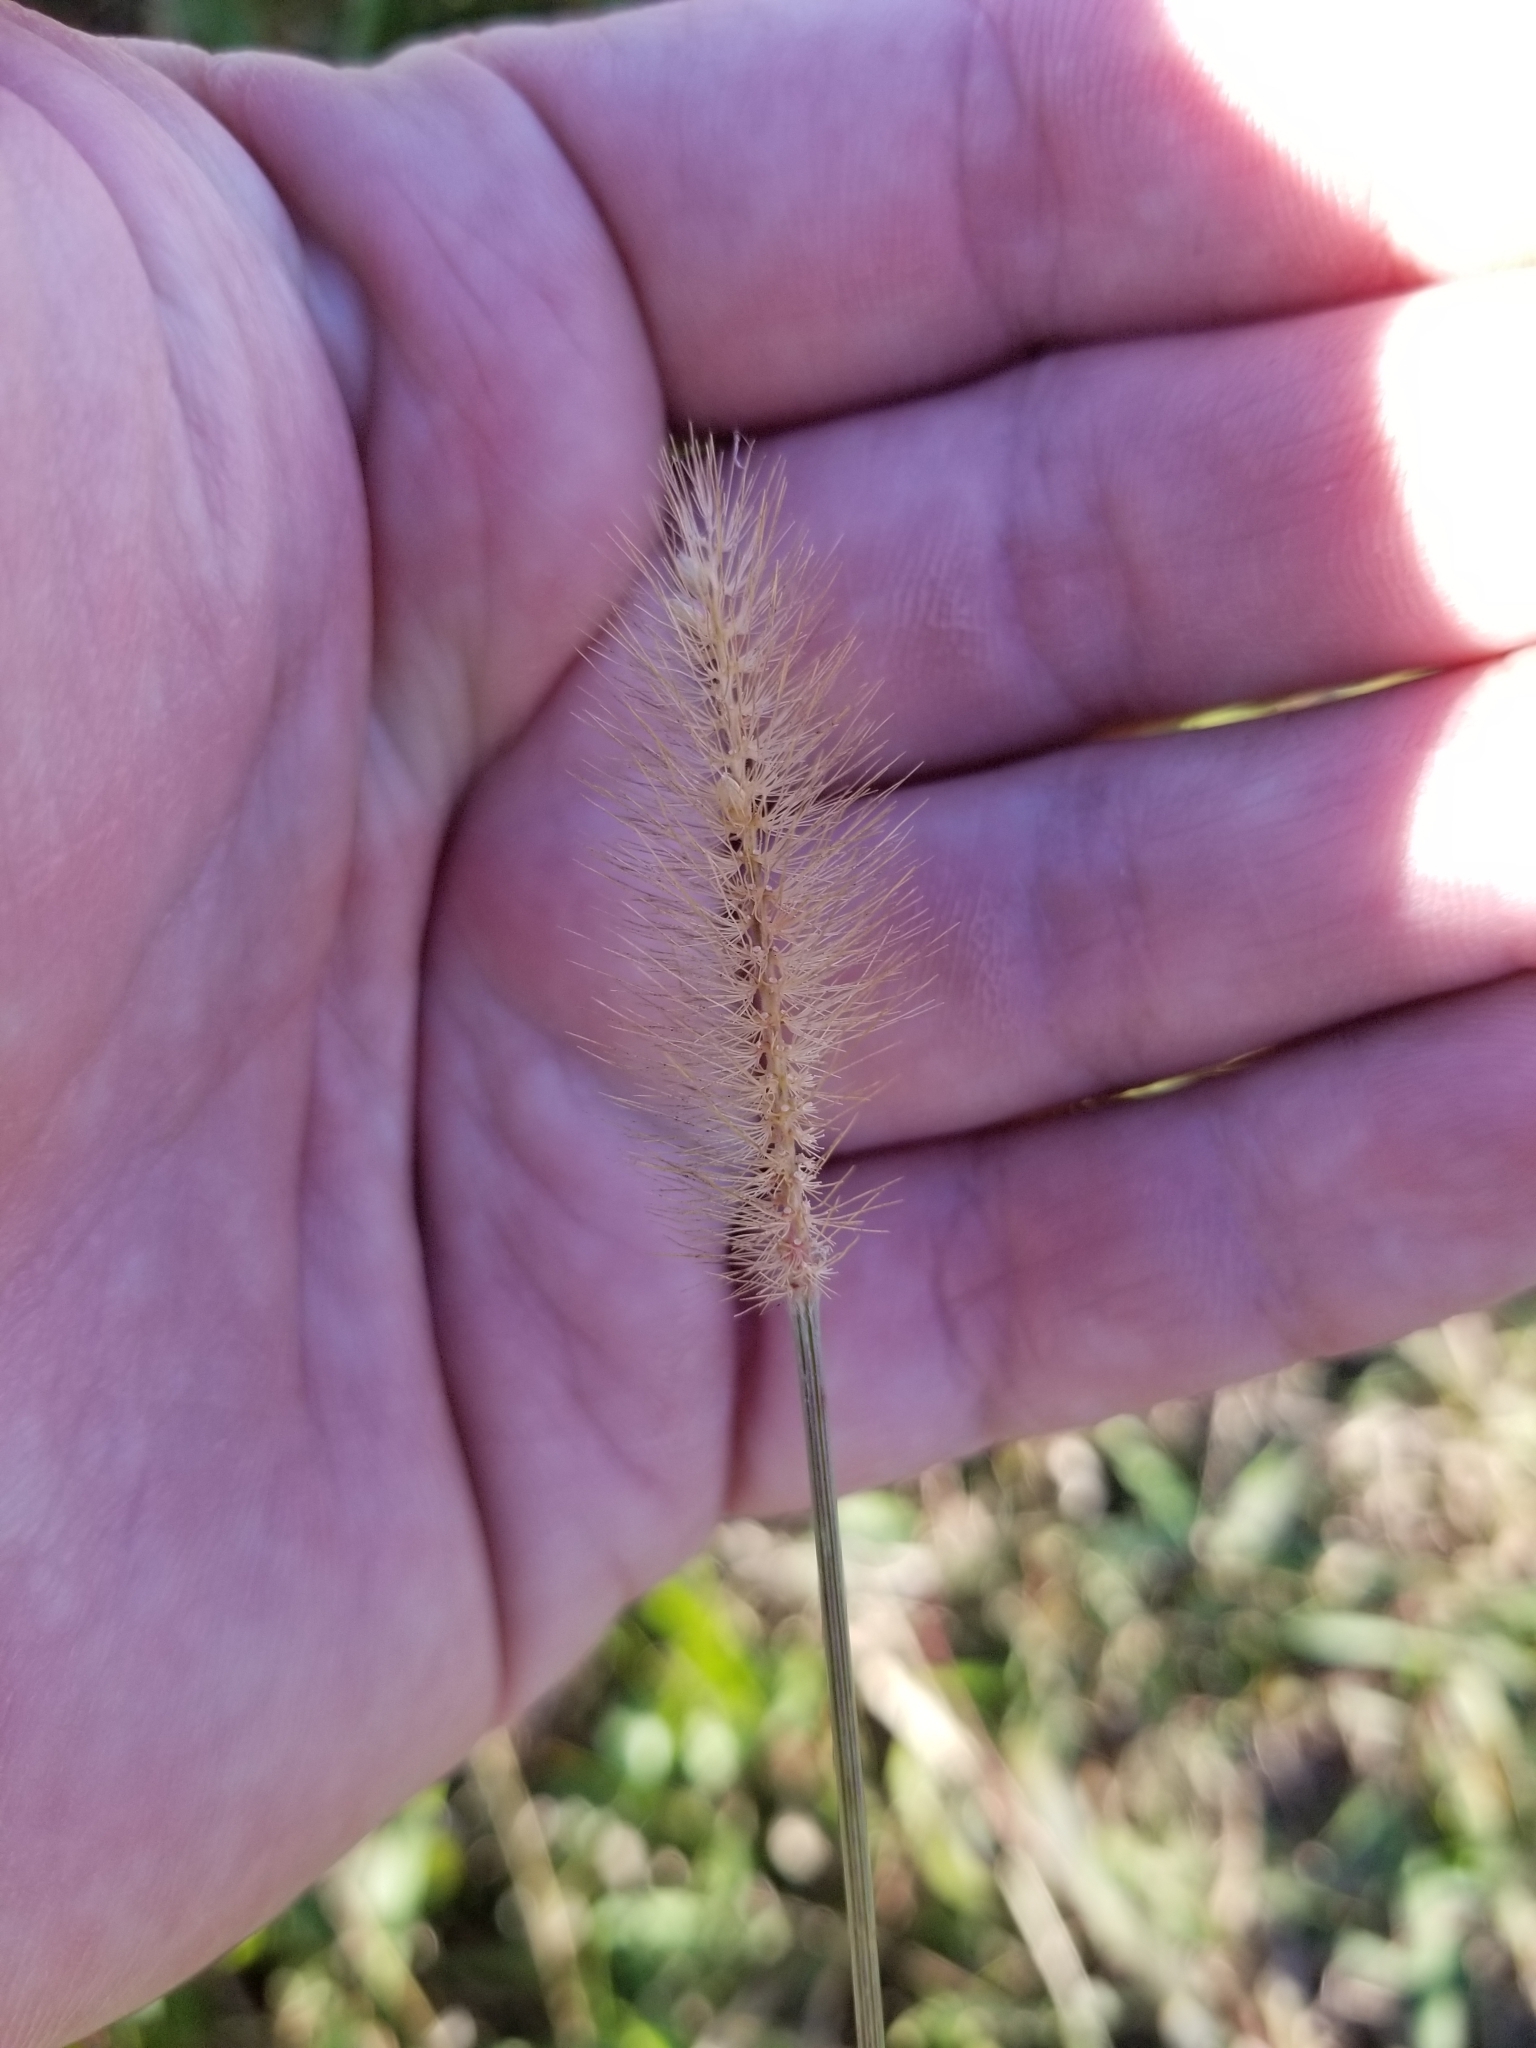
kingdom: Plantae
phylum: Tracheophyta
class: Liliopsida
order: Poales
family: Poaceae
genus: Setaria
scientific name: Setaria parviflora
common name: Knotroot bristle-grass
